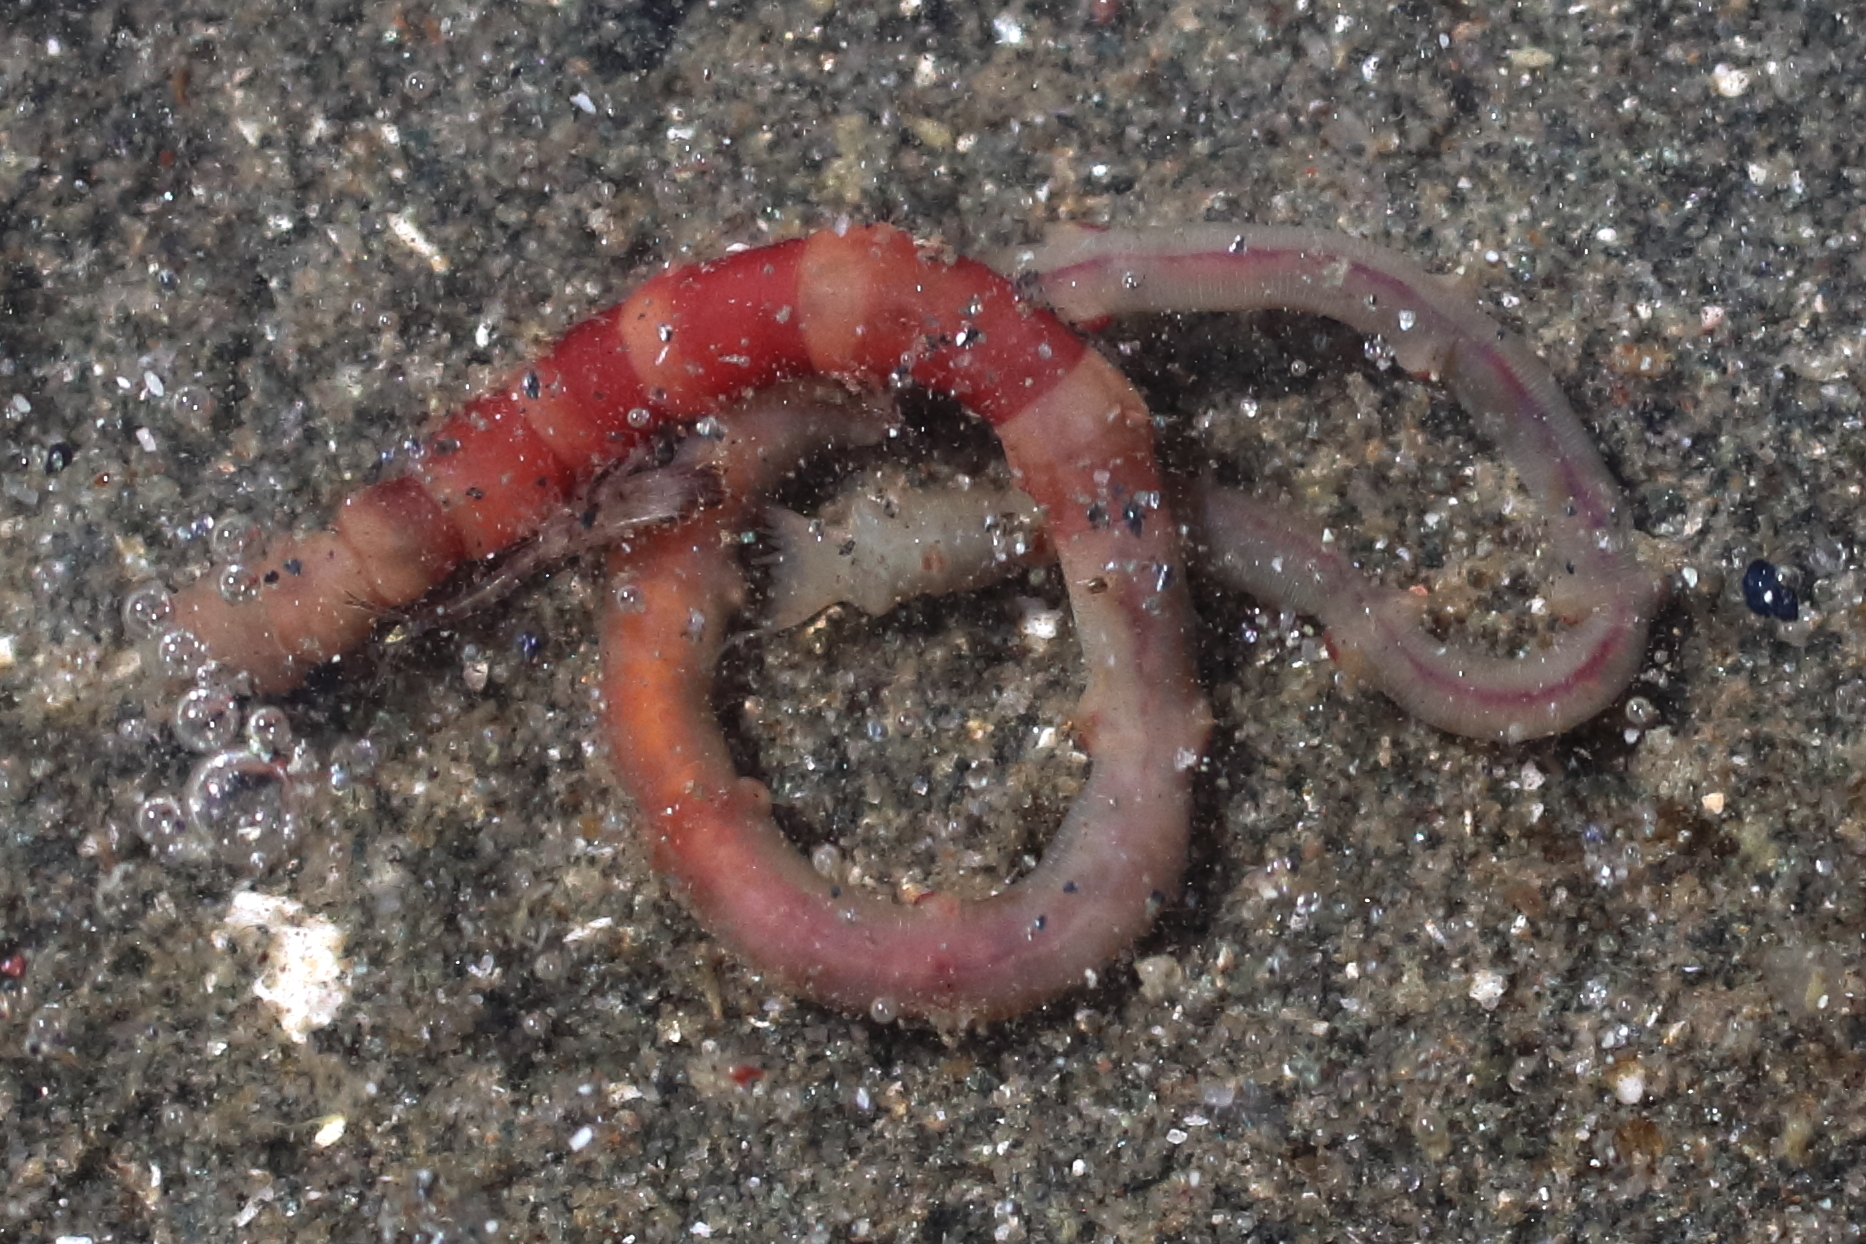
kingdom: Animalia
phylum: Annelida
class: Polychaeta
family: Maldanidae
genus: Axiothella
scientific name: Axiothella rubrocincta
